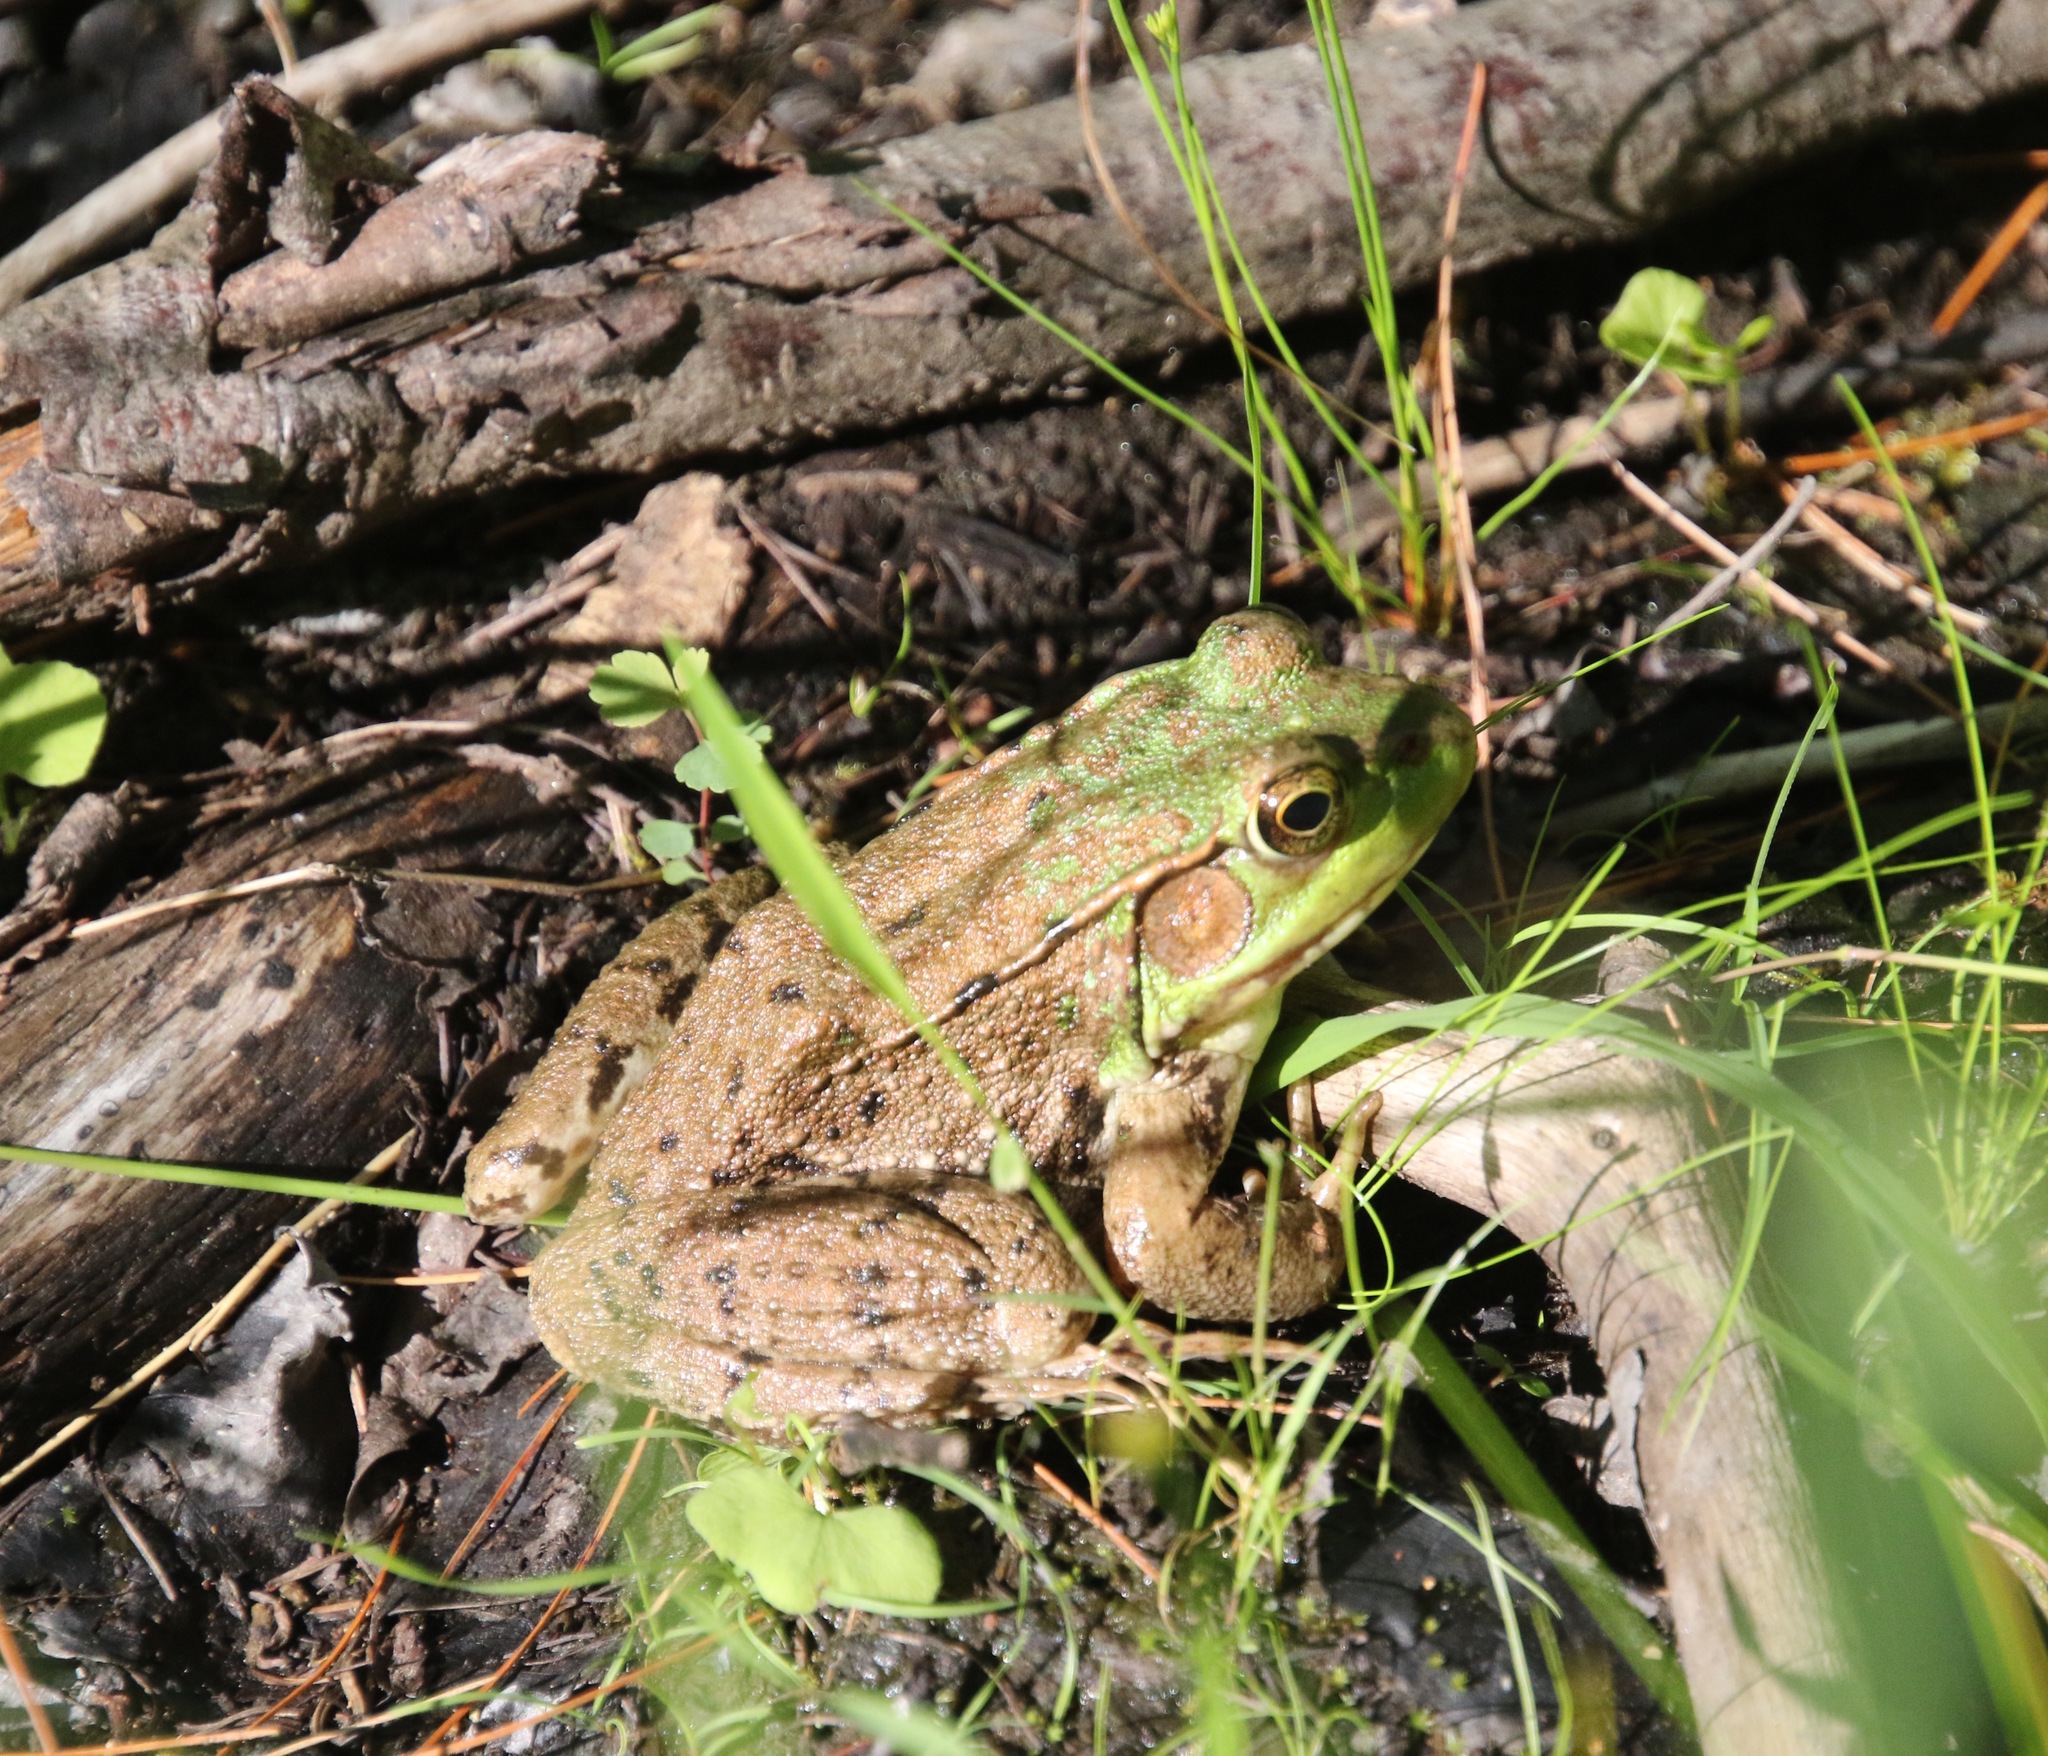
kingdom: Animalia
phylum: Chordata
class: Amphibia
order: Anura
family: Ranidae
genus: Lithobates
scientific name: Lithobates clamitans
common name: Green frog
